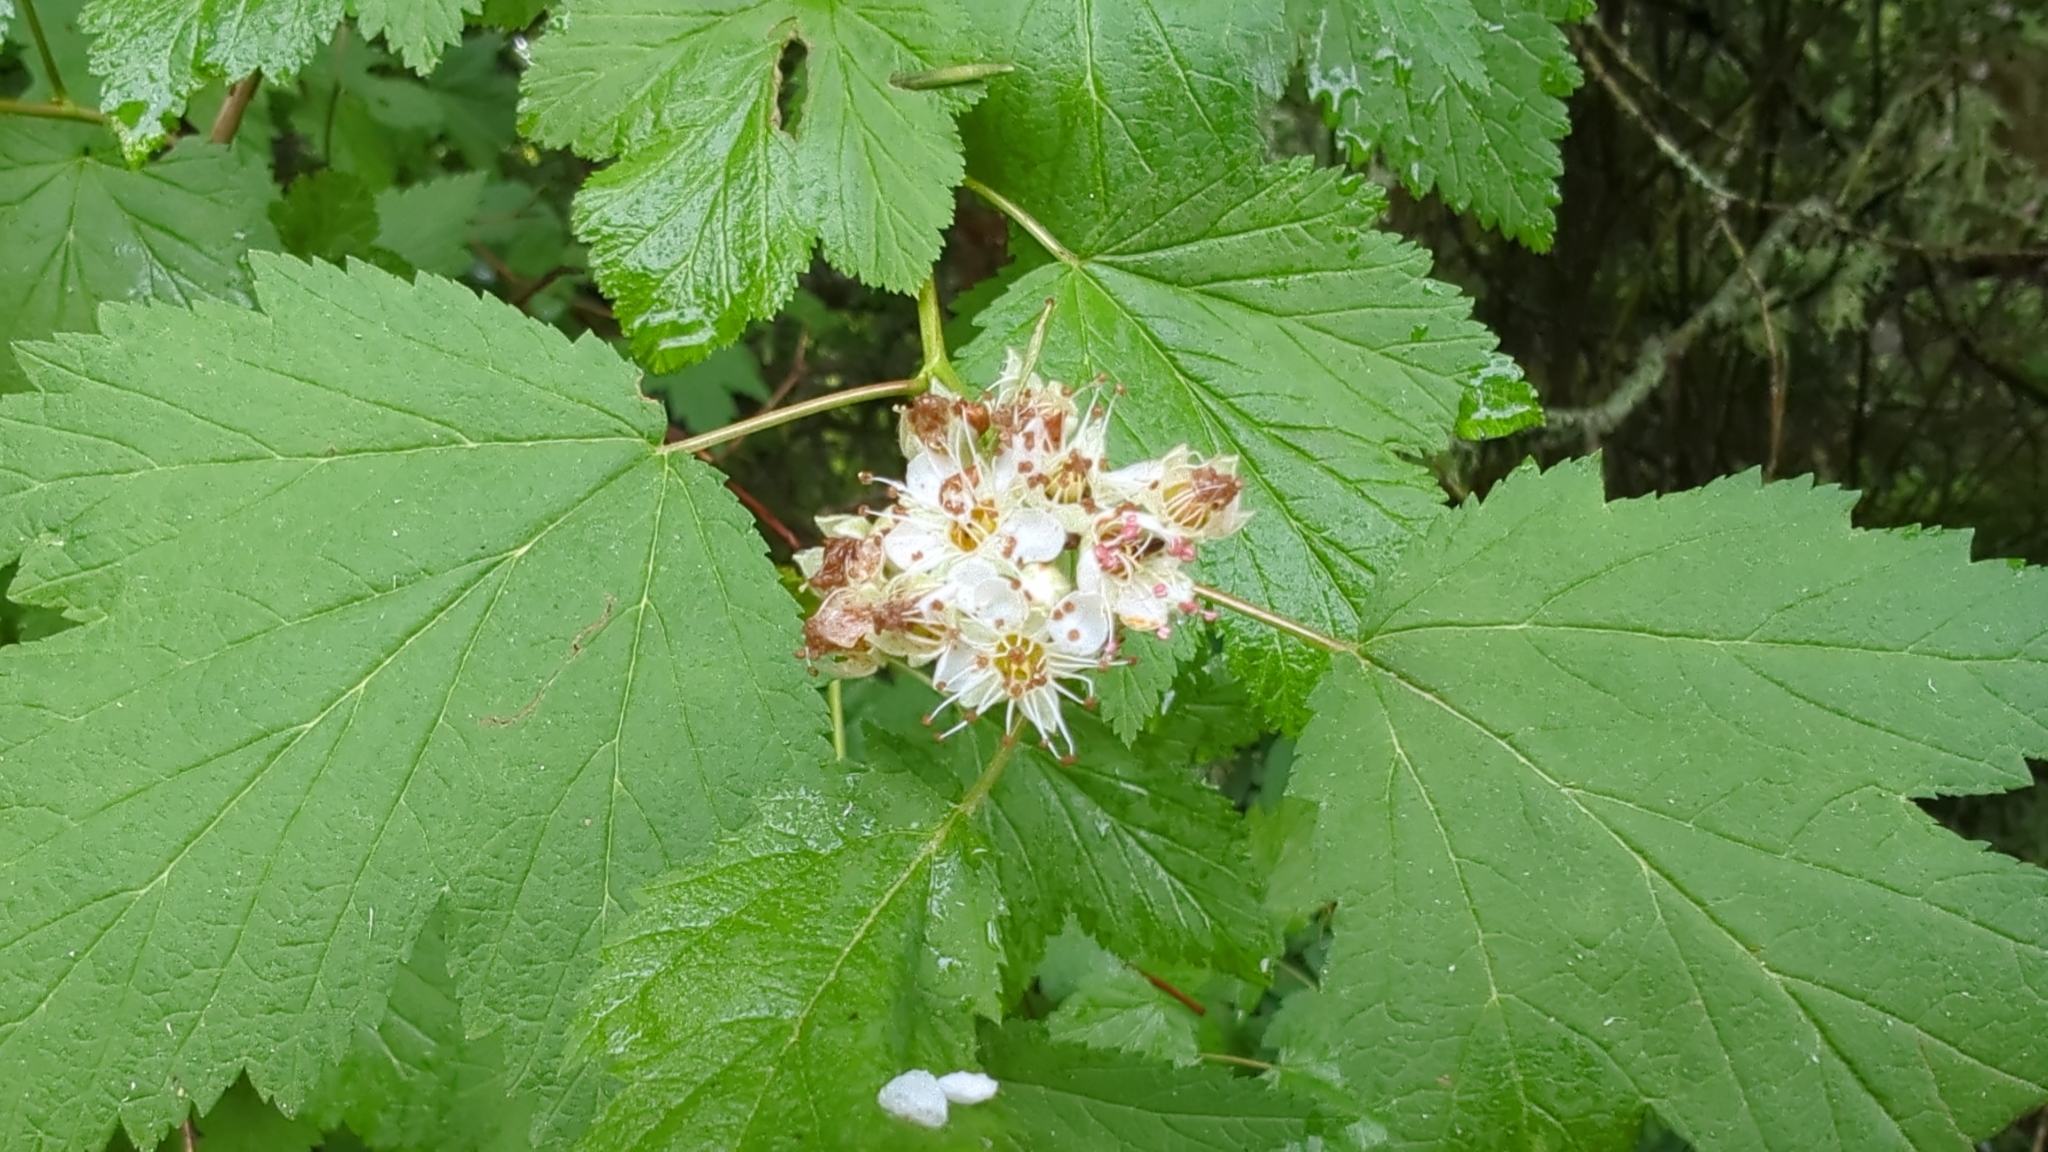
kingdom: Plantae
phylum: Tracheophyta
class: Magnoliopsida
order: Rosales
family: Rosaceae
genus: Physocarpus
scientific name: Physocarpus capitatus
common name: Pacific ninebark
